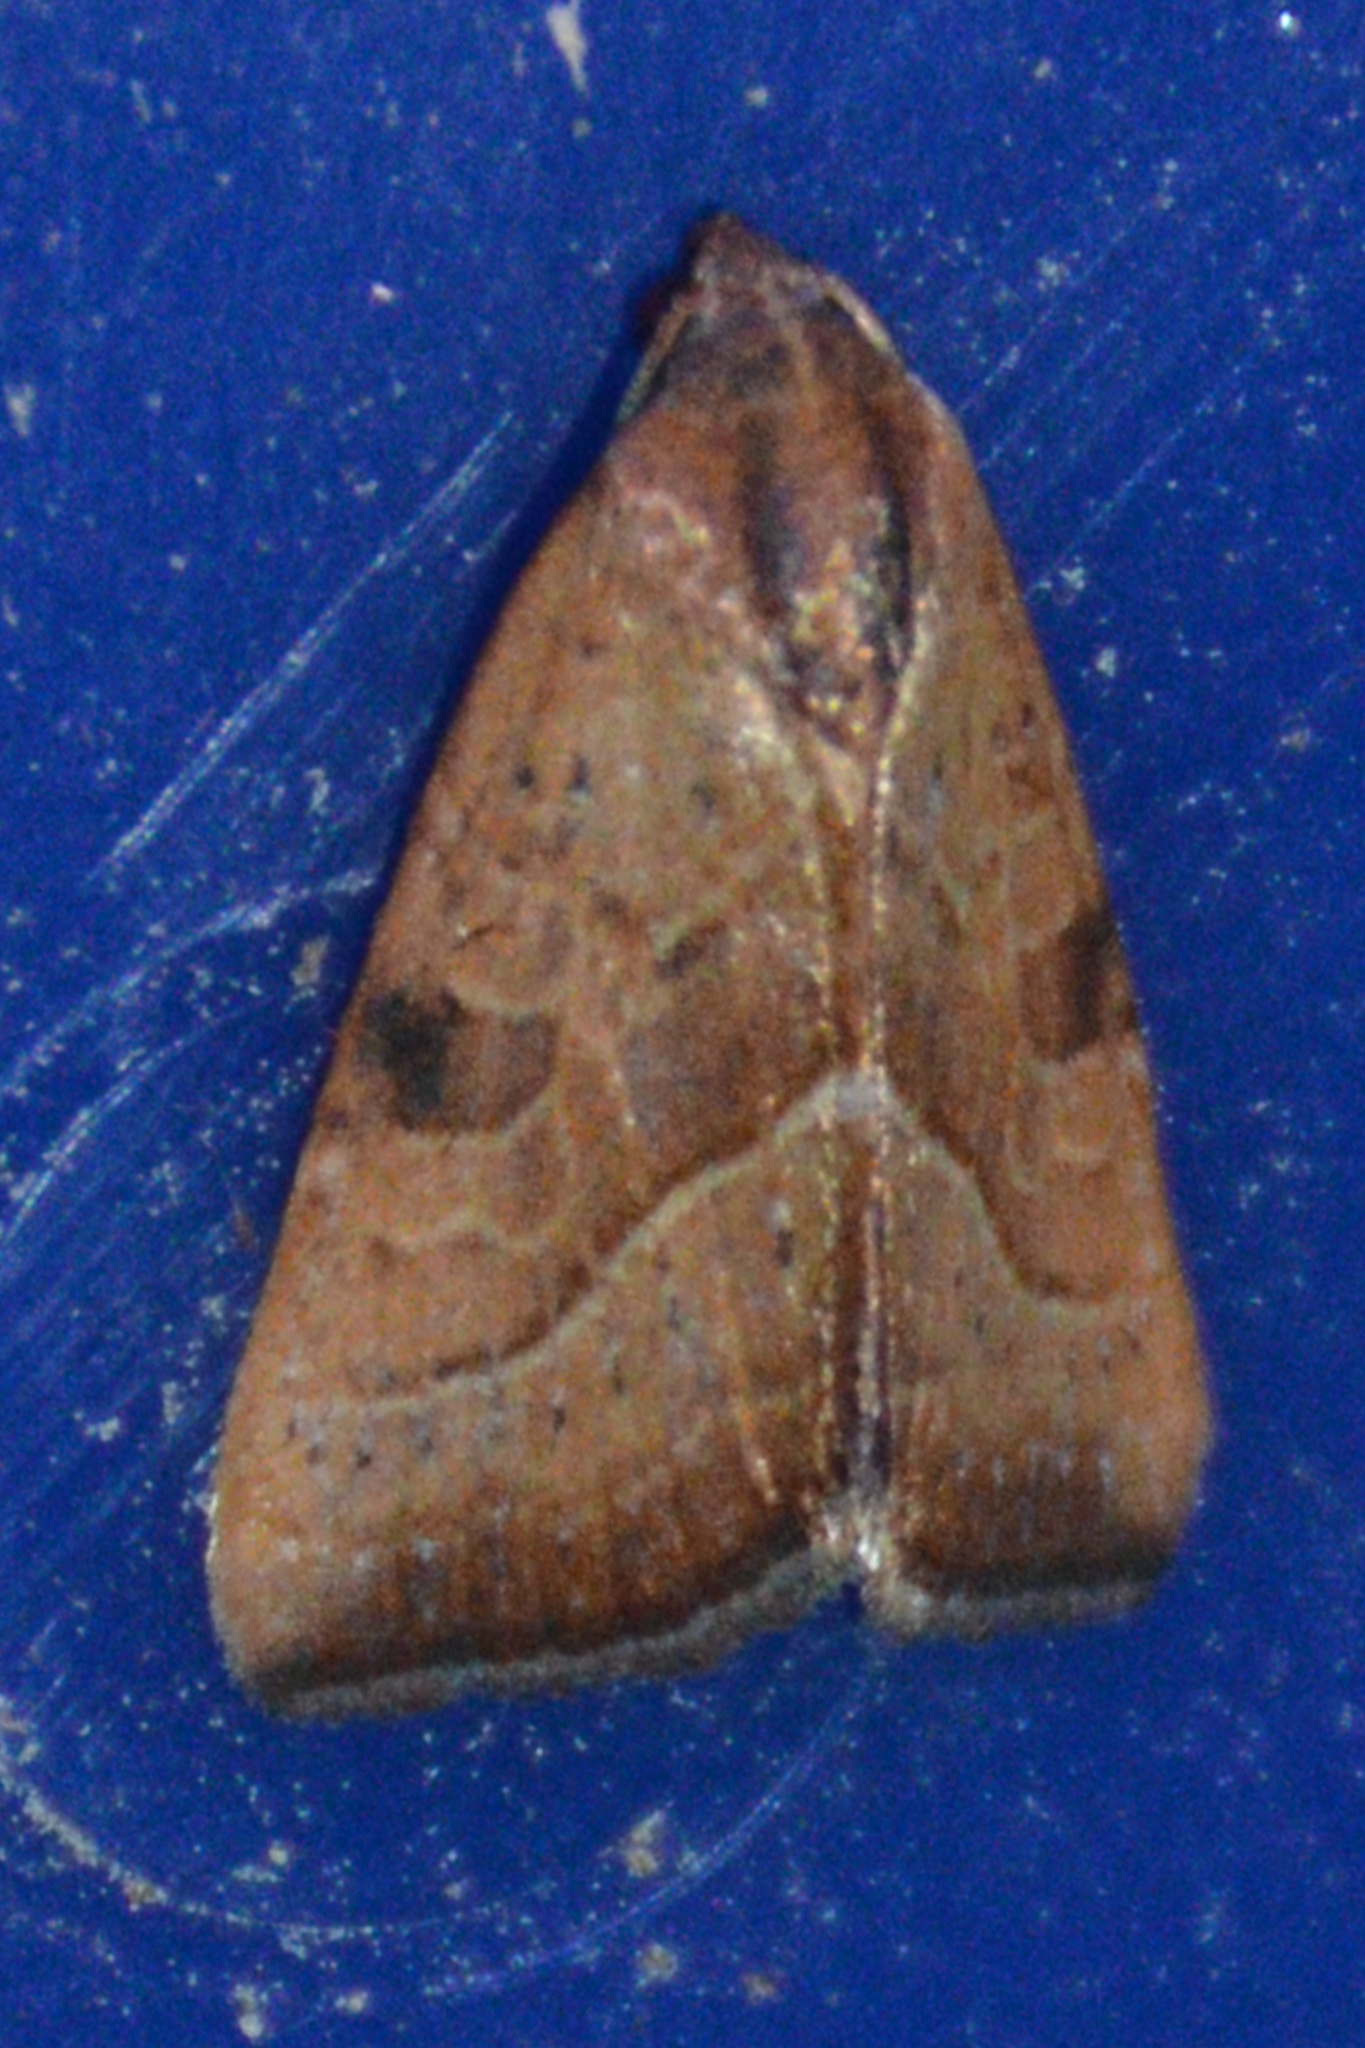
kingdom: Animalia
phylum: Arthropoda
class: Insecta
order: Lepidoptera
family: Noctuidae
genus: Galgula
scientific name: Galgula partita
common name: Wedgeling
